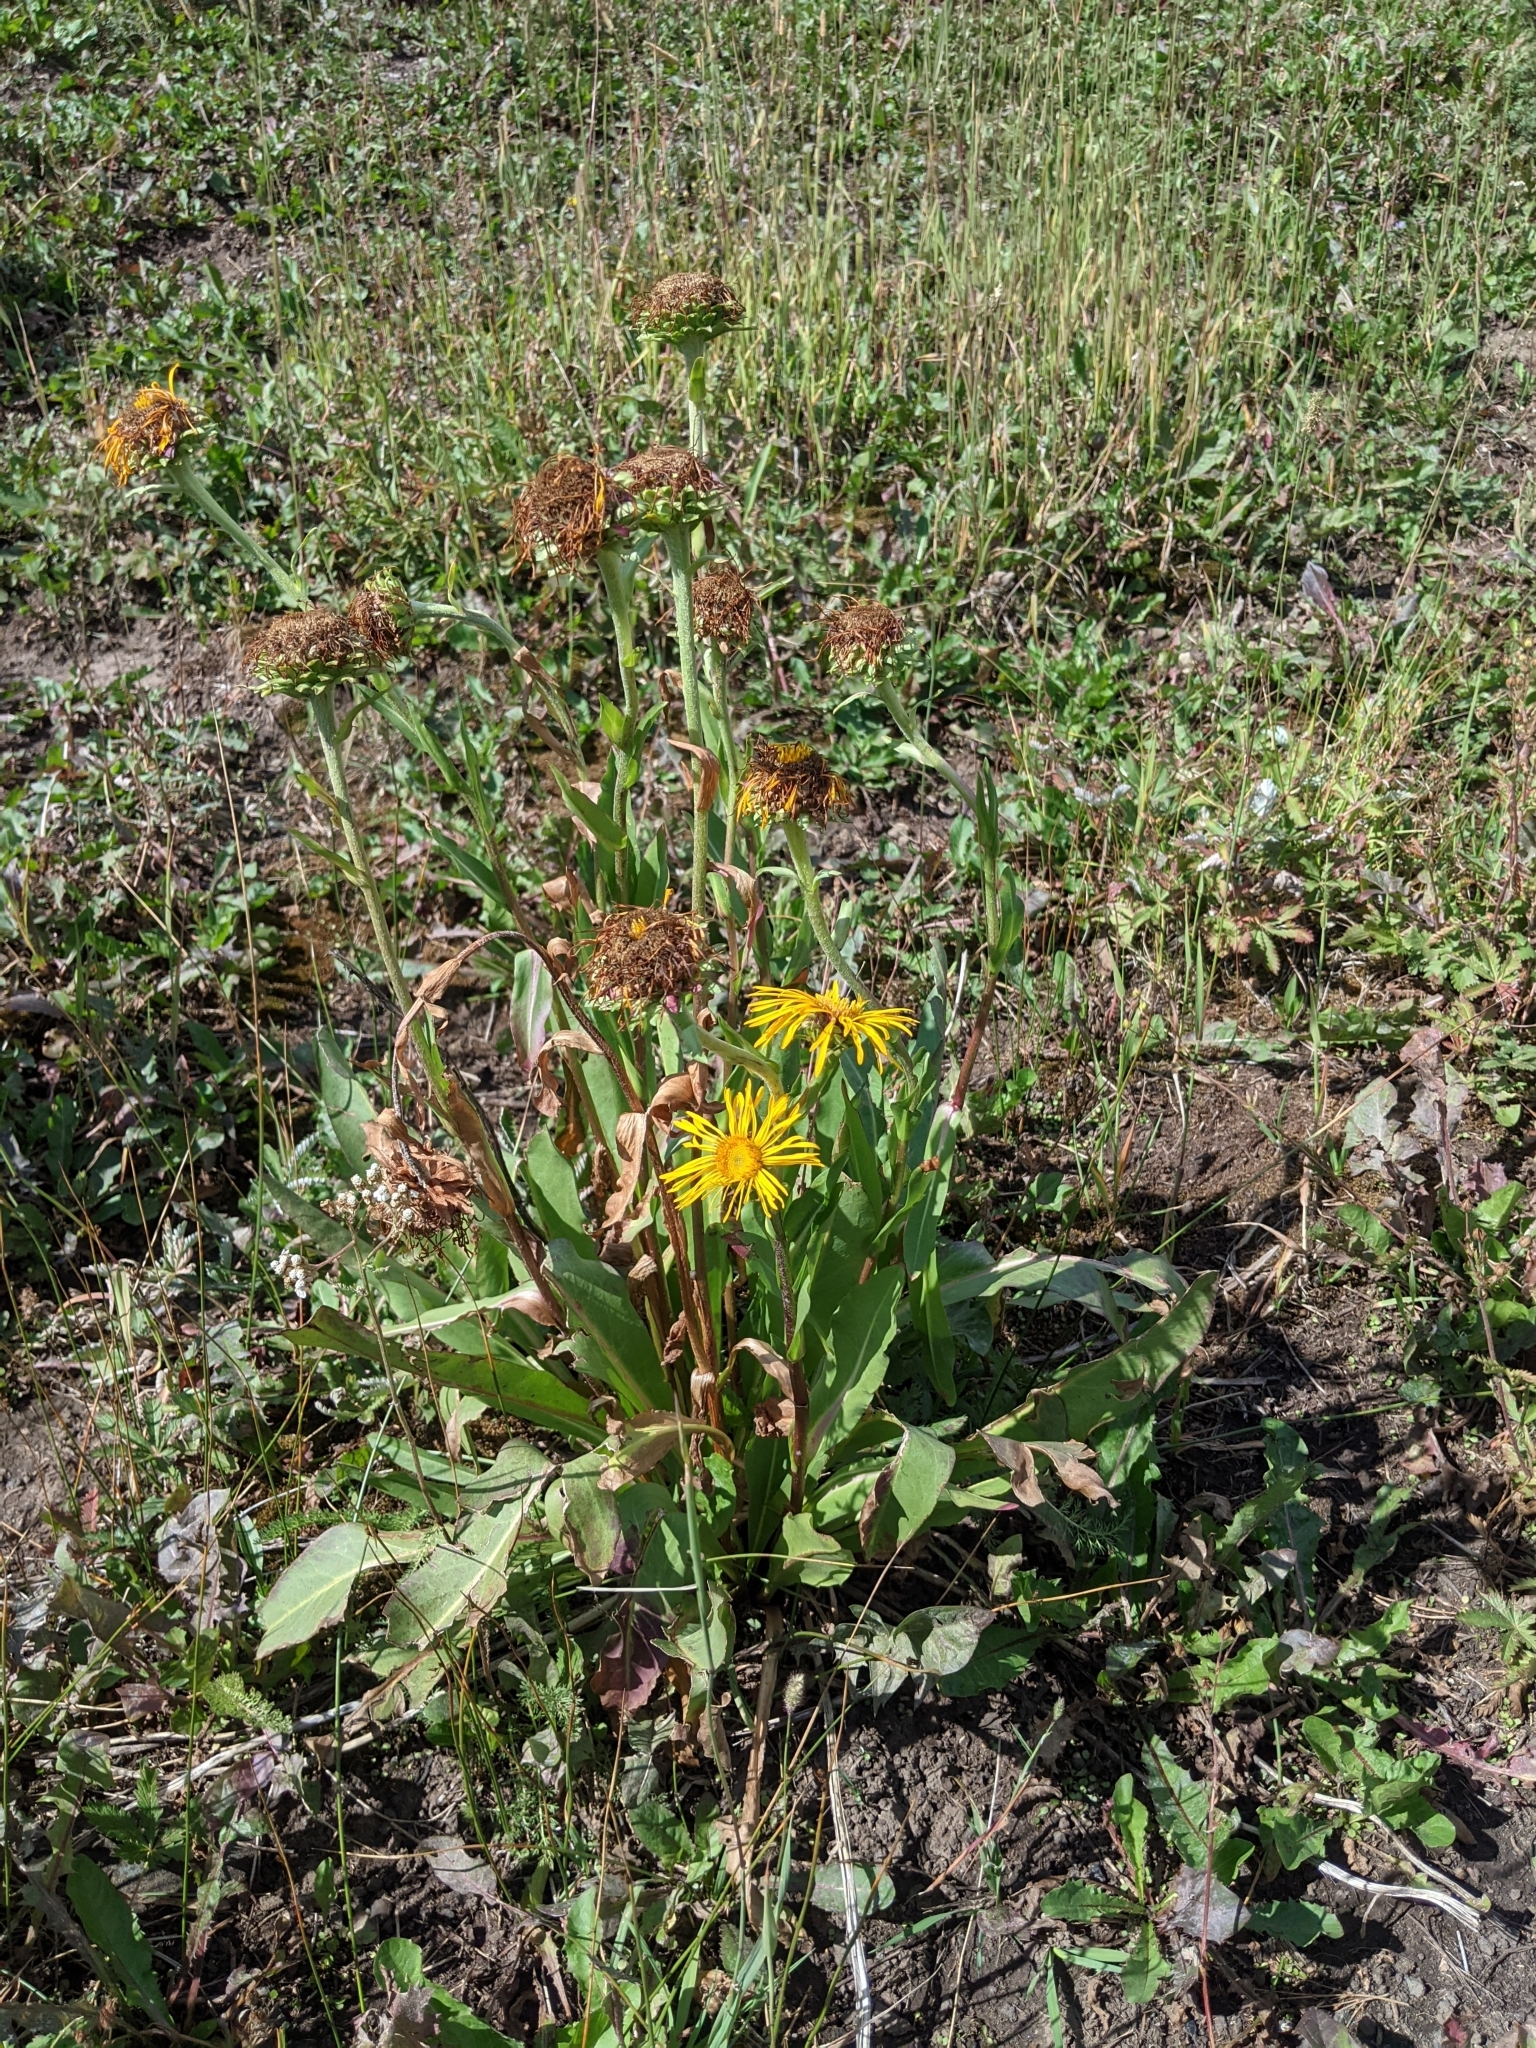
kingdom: Plantae
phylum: Tracheophyta
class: Magnoliopsida
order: Asterales
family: Asteraceae
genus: Hymenoxys
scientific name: Hymenoxys hoopesii
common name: Orange-sneezeweed
